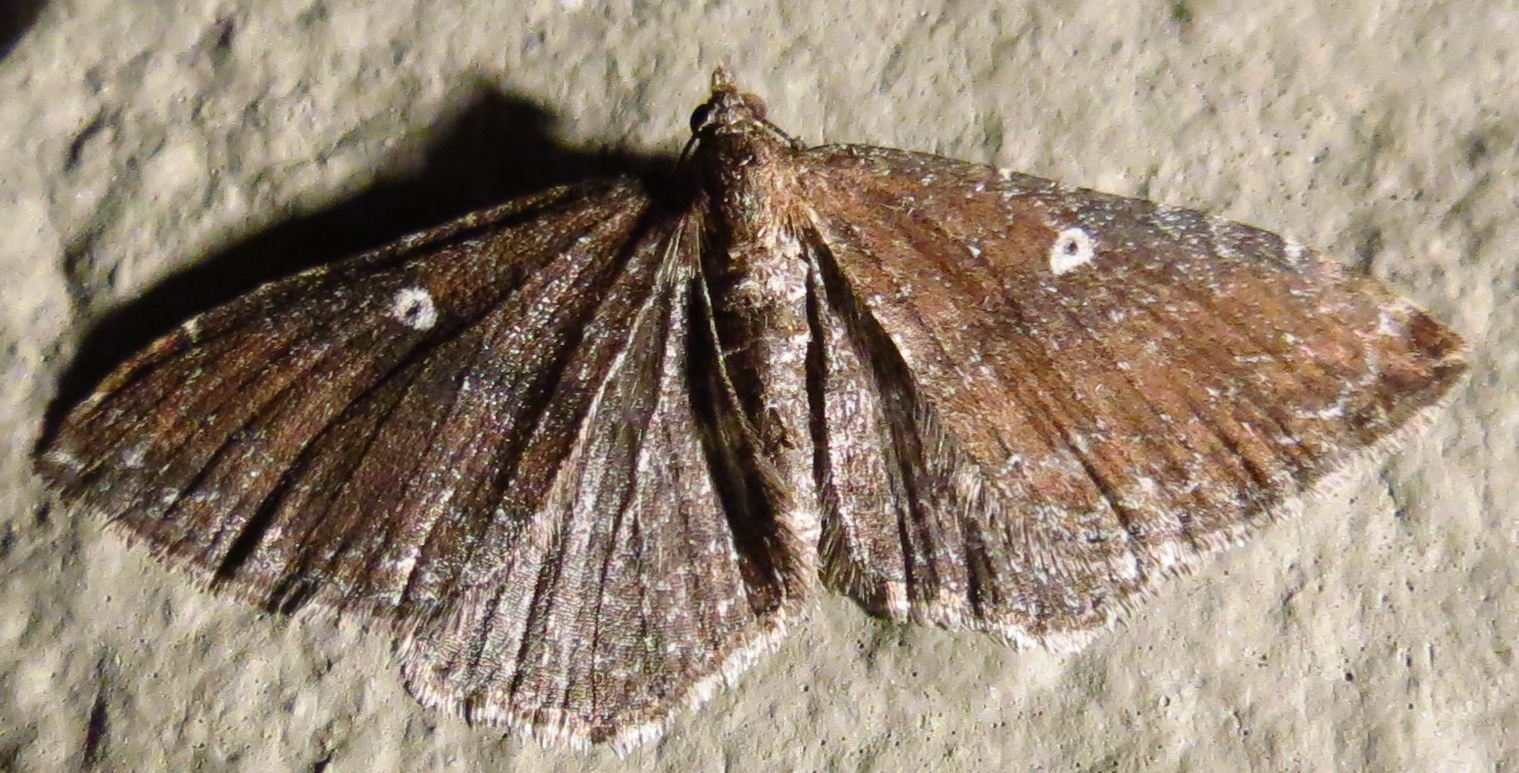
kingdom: Animalia
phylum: Arthropoda
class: Insecta
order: Lepidoptera
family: Geometridae
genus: Orthonama
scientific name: Orthonama obstipata
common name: The gem
